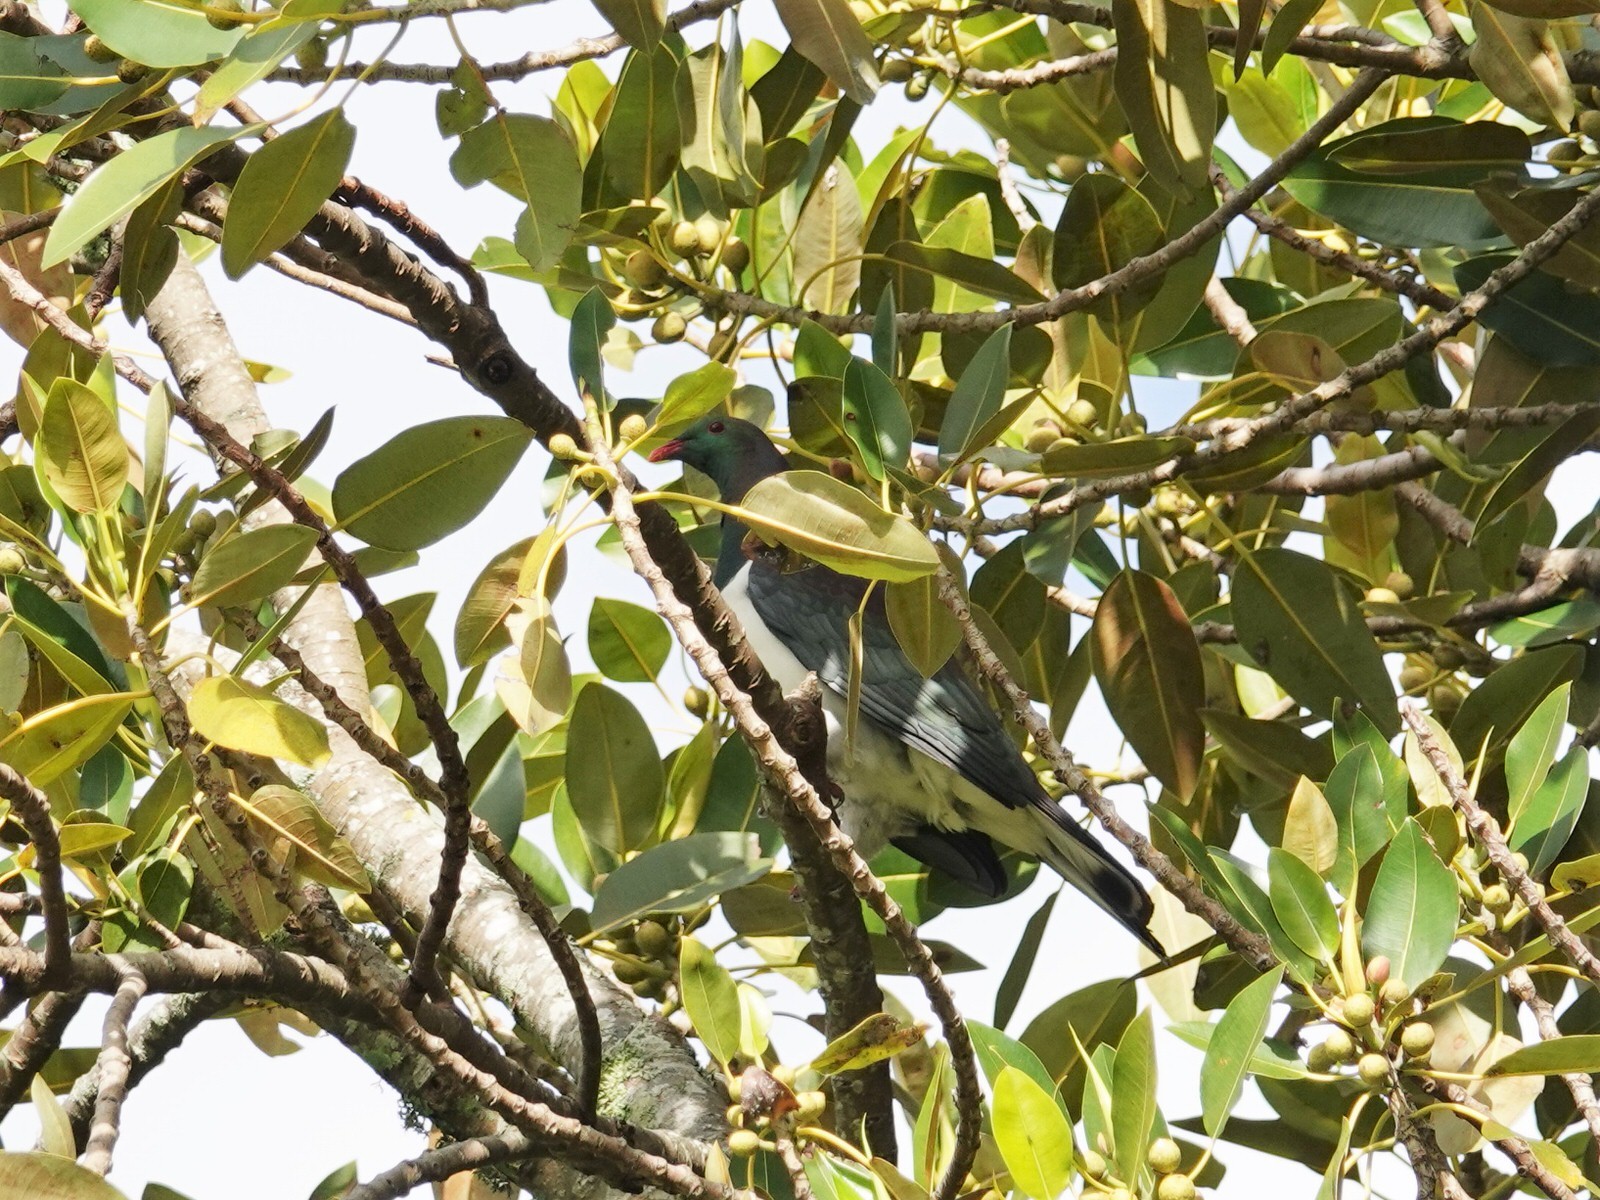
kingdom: Animalia
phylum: Chordata
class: Aves
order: Columbiformes
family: Columbidae
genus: Hemiphaga
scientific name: Hemiphaga novaeseelandiae
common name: New zealand pigeon
